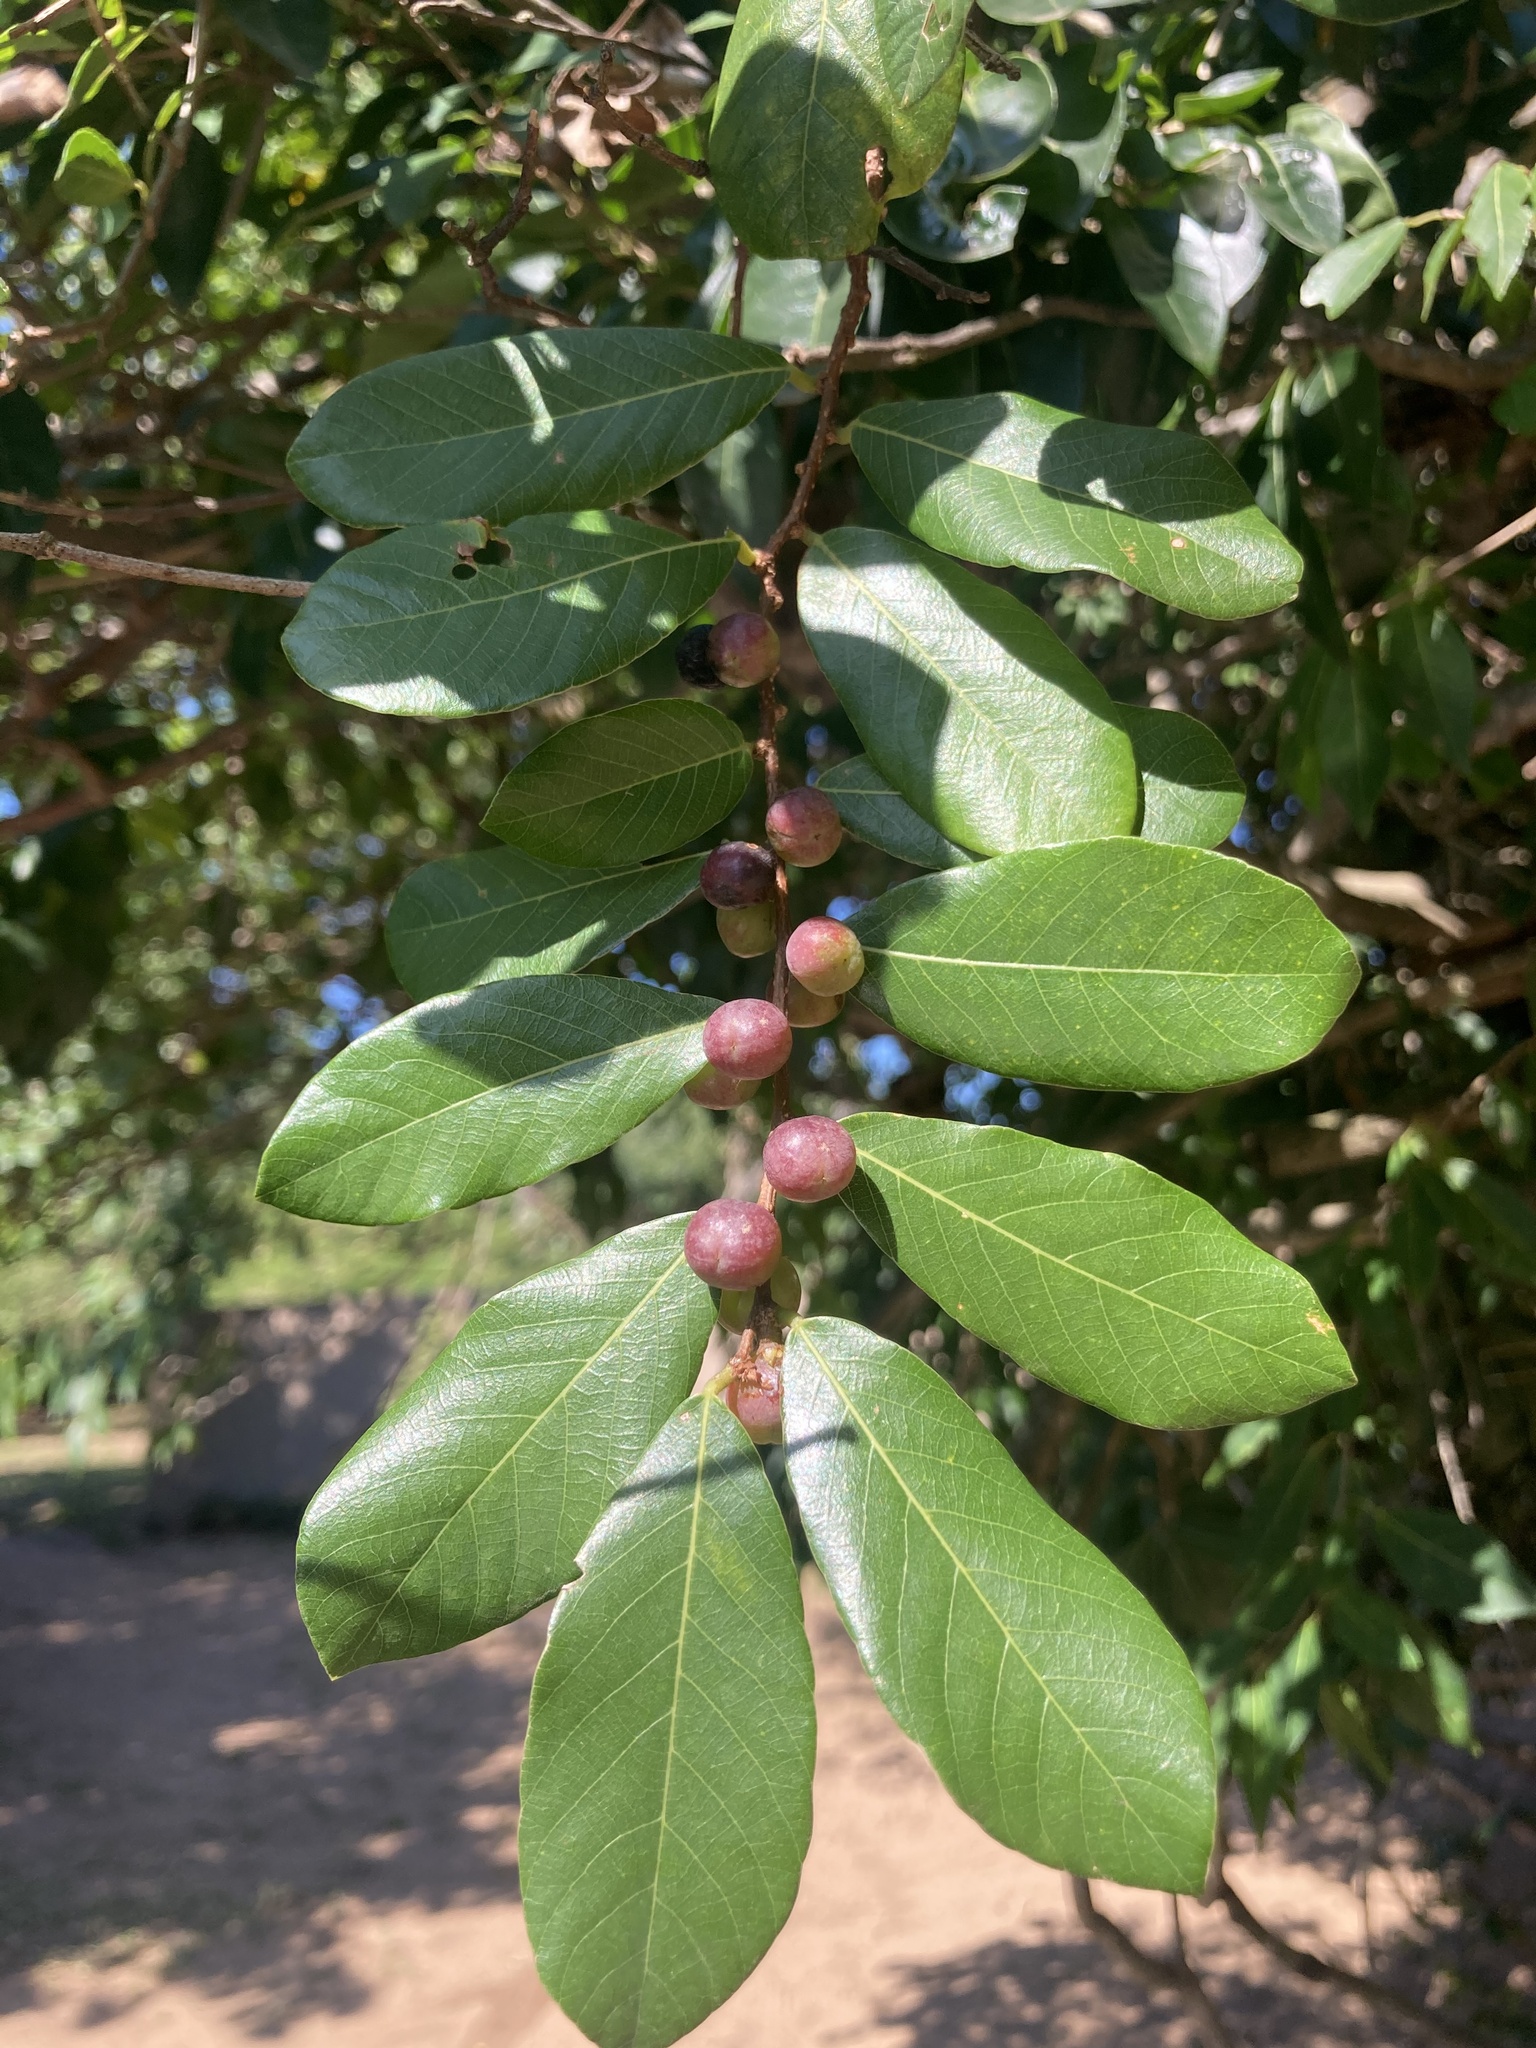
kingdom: Plantae
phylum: Tracheophyta
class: Magnoliopsida
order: Malpighiales
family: Phyllanthaceae
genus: Bridelia
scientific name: Bridelia cathartica
